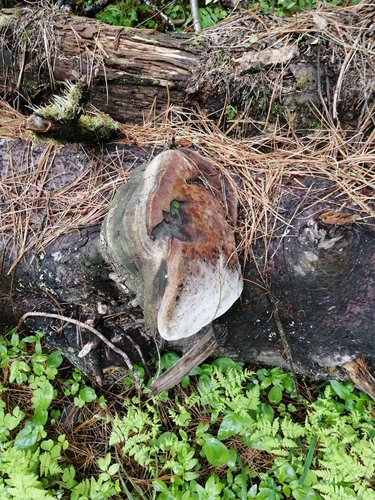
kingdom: Fungi
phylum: Basidiomycota
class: Agaricomycetes
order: Hymenochaetales
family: Hymenochaetaceae
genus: Phellinus
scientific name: Phellinus hartigii
